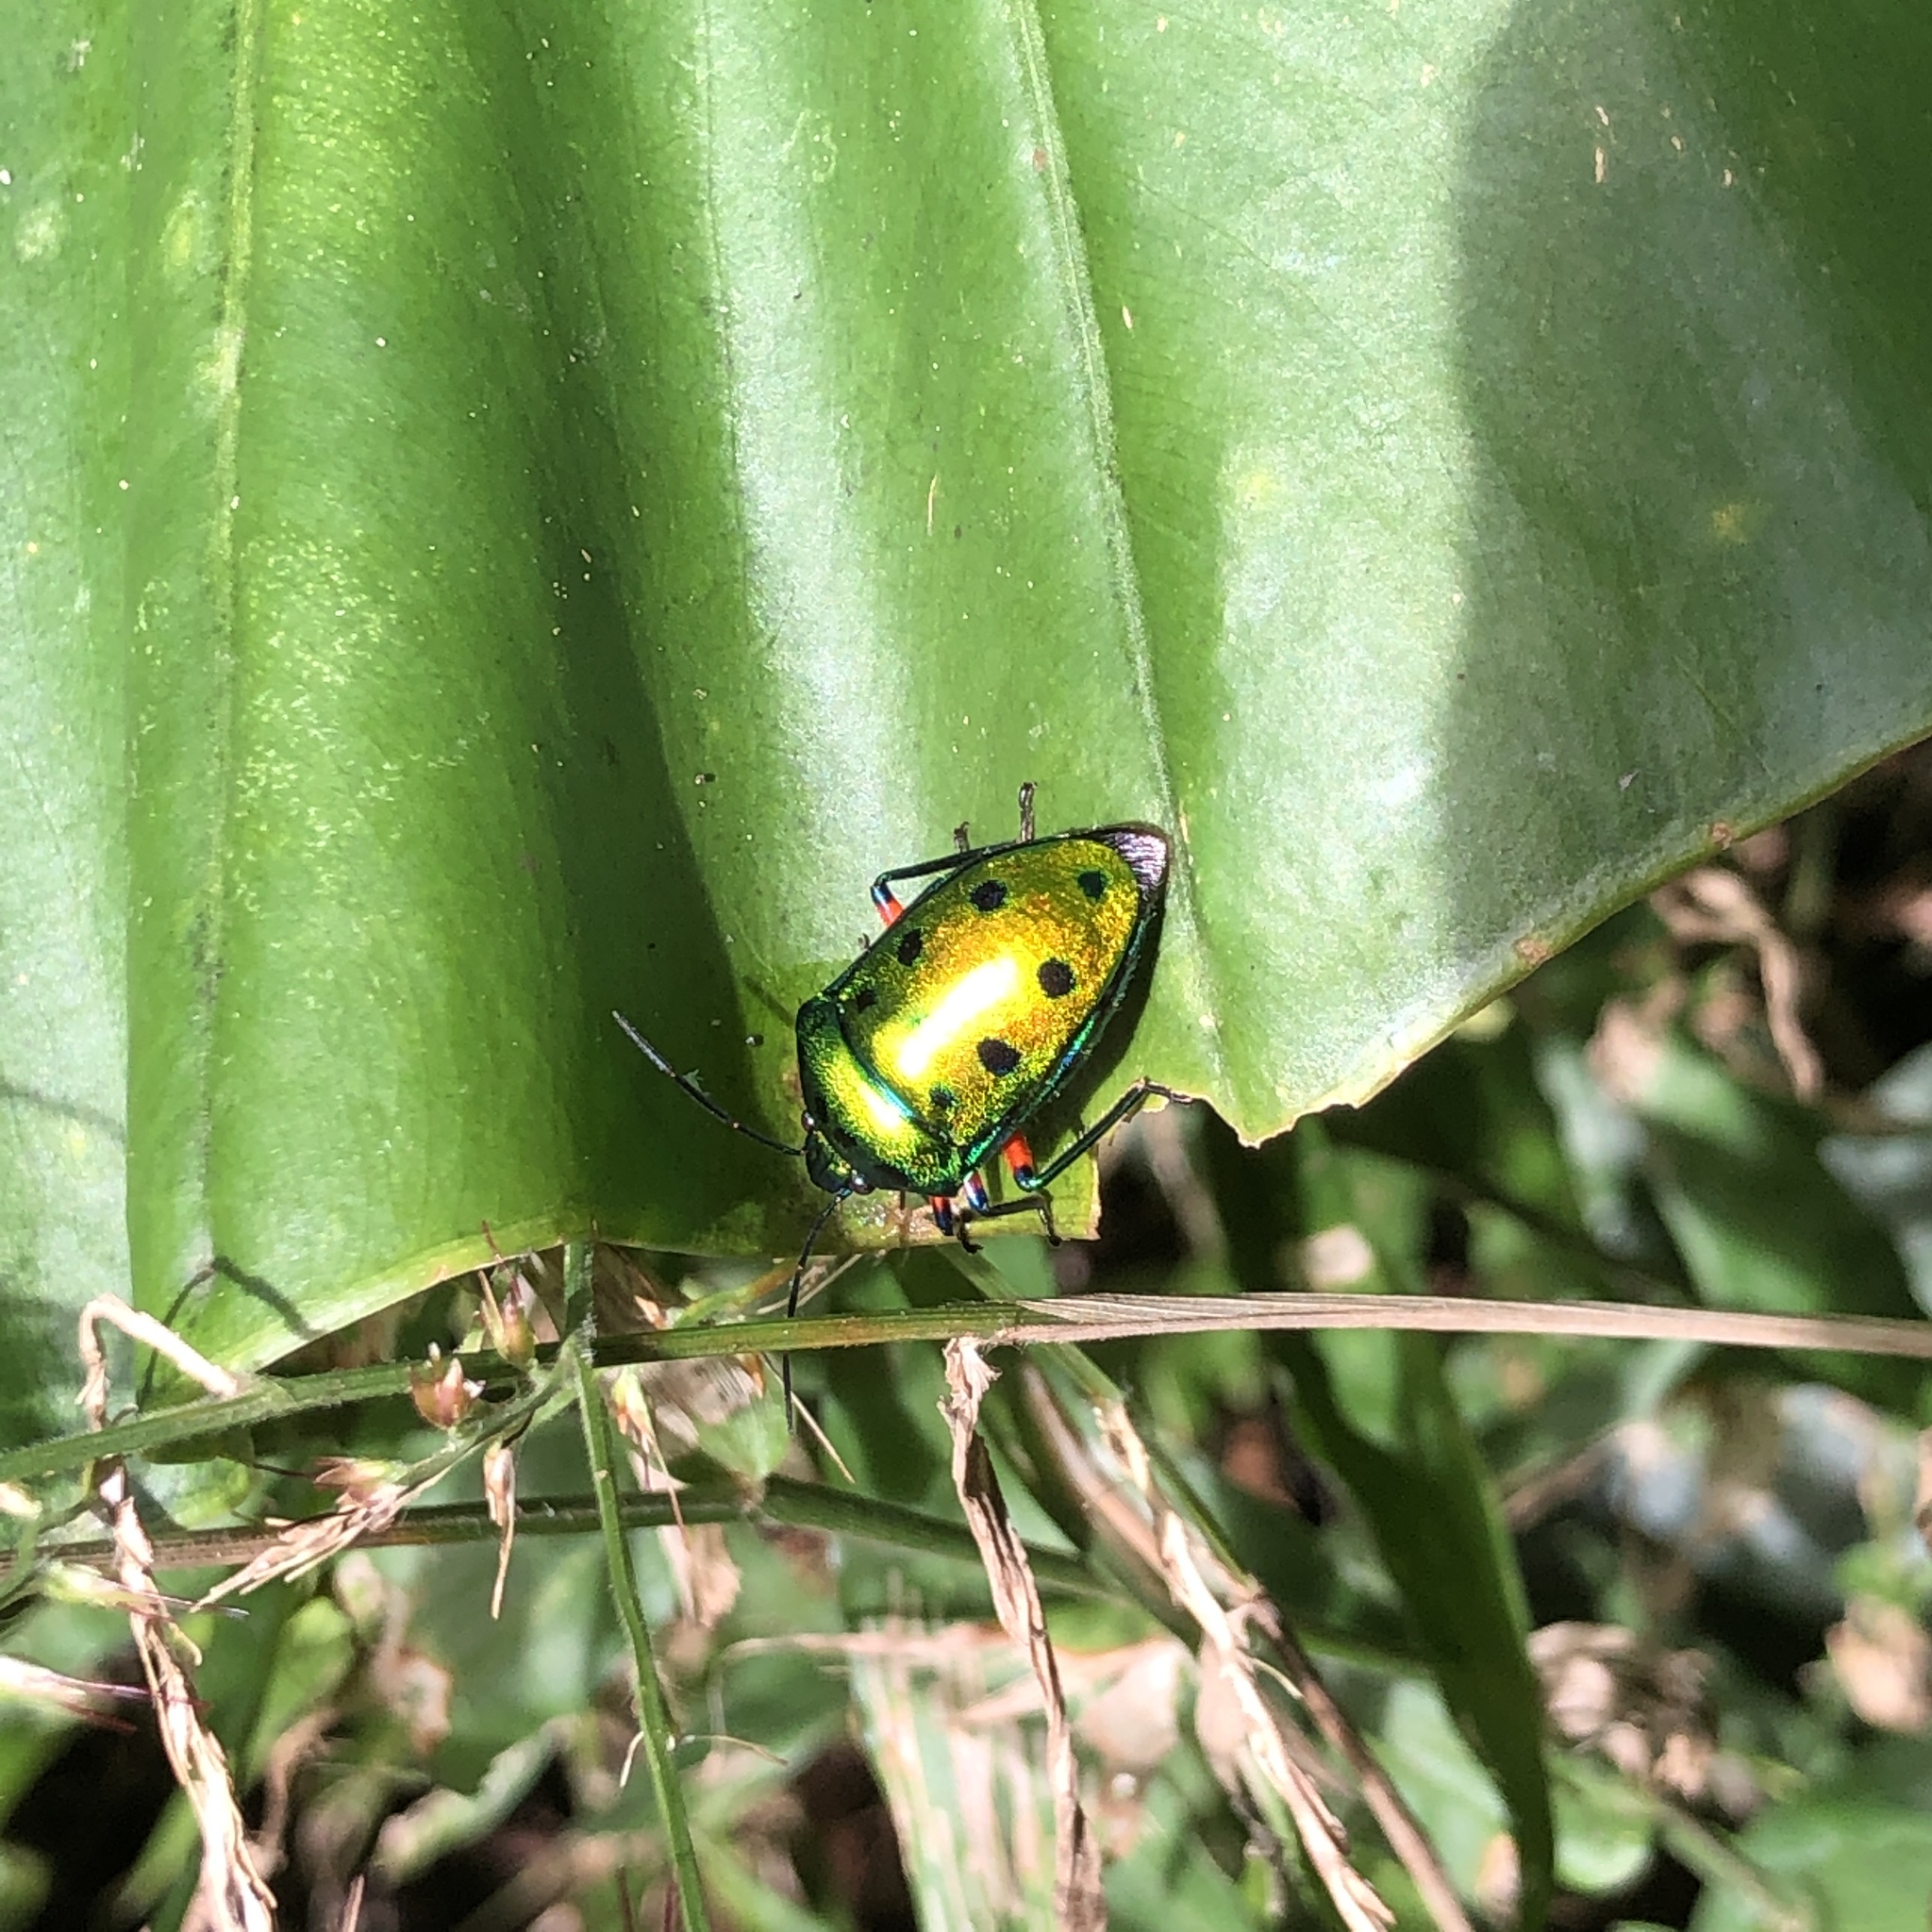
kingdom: Animalia
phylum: Arthropoda
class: Insecta
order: Hemiptera
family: Scutelleridae
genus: Calliphara
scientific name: Calliphara excellens
